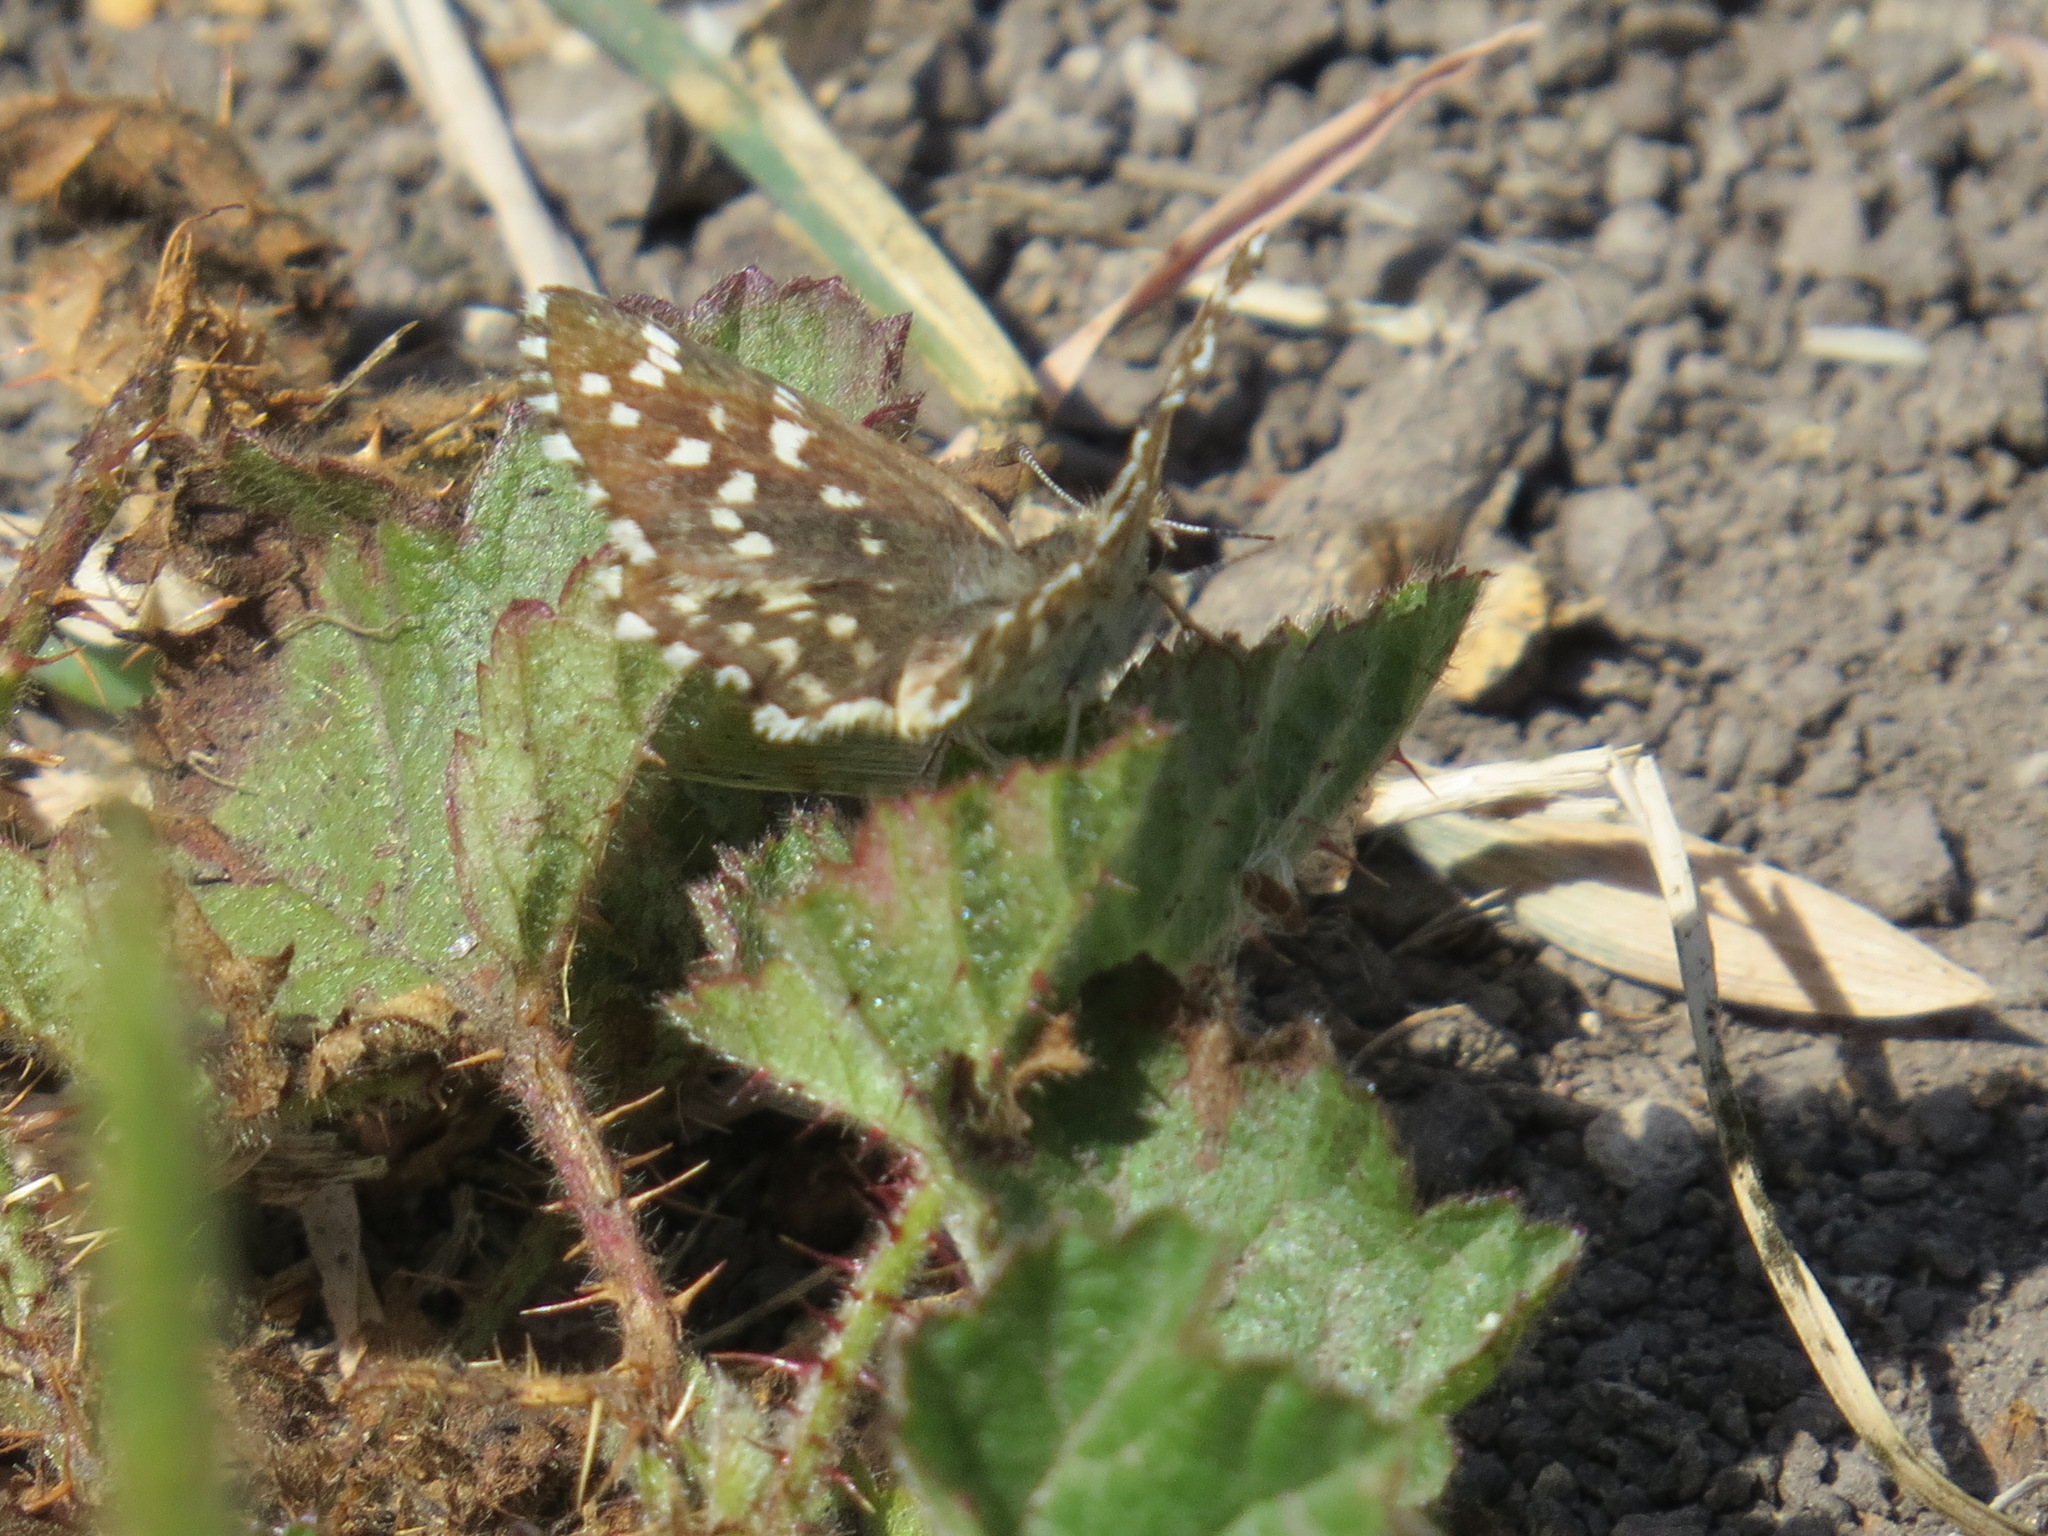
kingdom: Animalia
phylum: Arthropoda
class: Insecta
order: Lepidoptera
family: Hesperiidae
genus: Pyrgus
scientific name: Pyrgus ruralis
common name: Two-banded checkered-skipper
